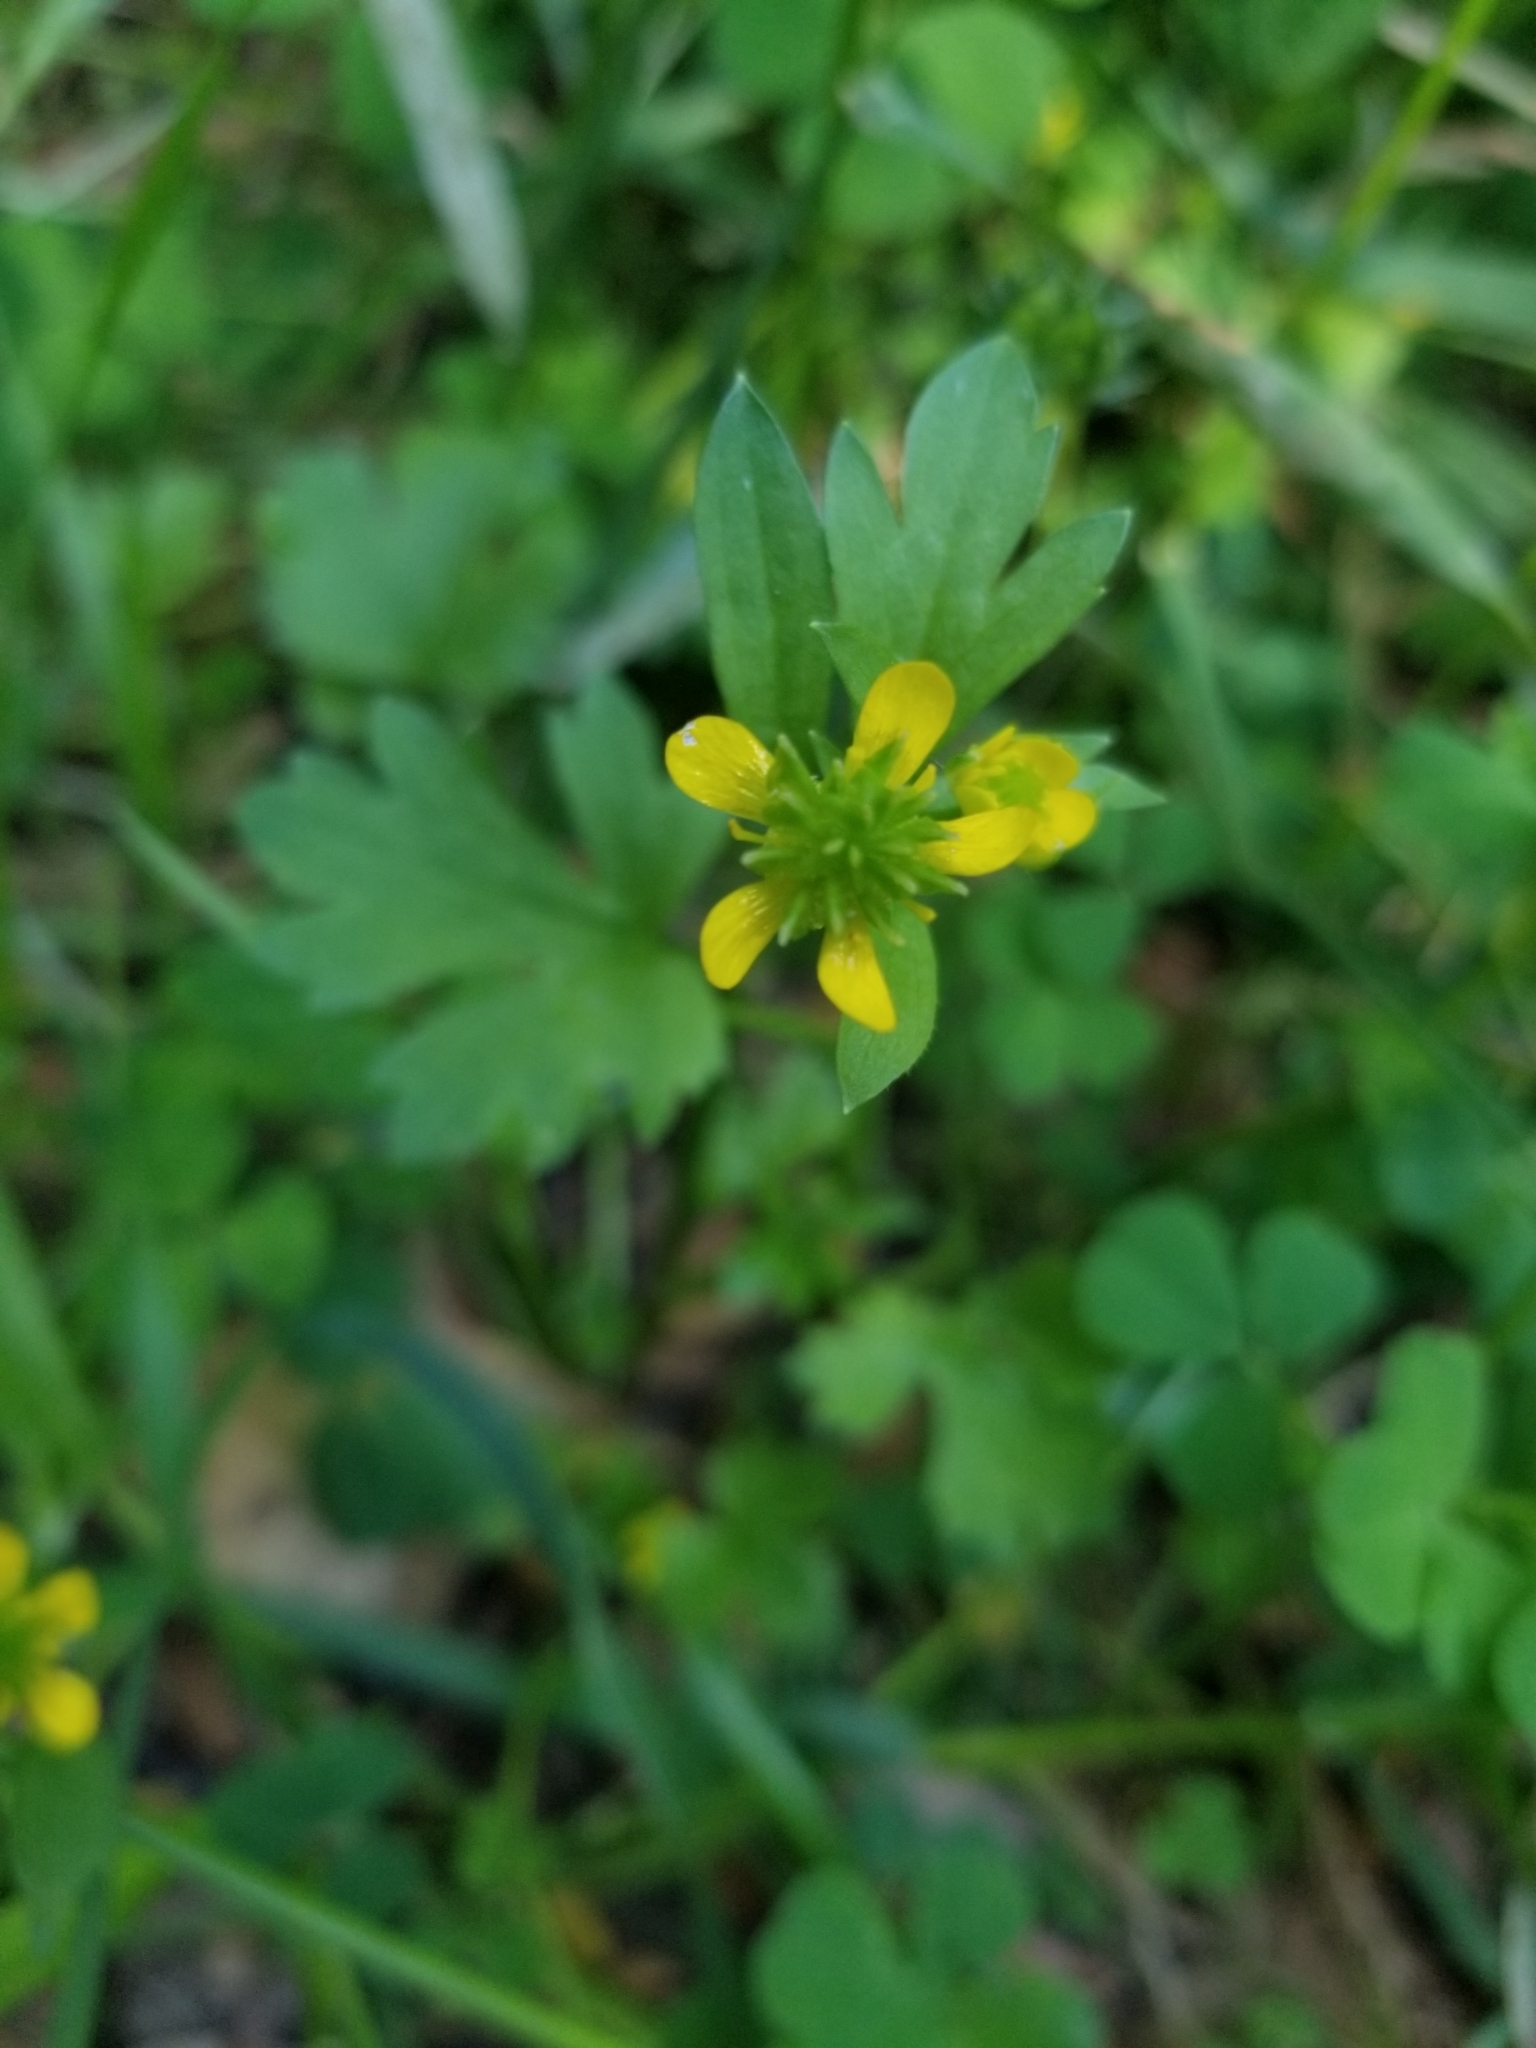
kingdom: Plantae
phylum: Tracheophyta
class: Magnoliopsida
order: Ranunculales
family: Ranunculaceae
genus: Ranunculus
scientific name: Ranunculus muricatus
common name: Rough-fruited buttercup
